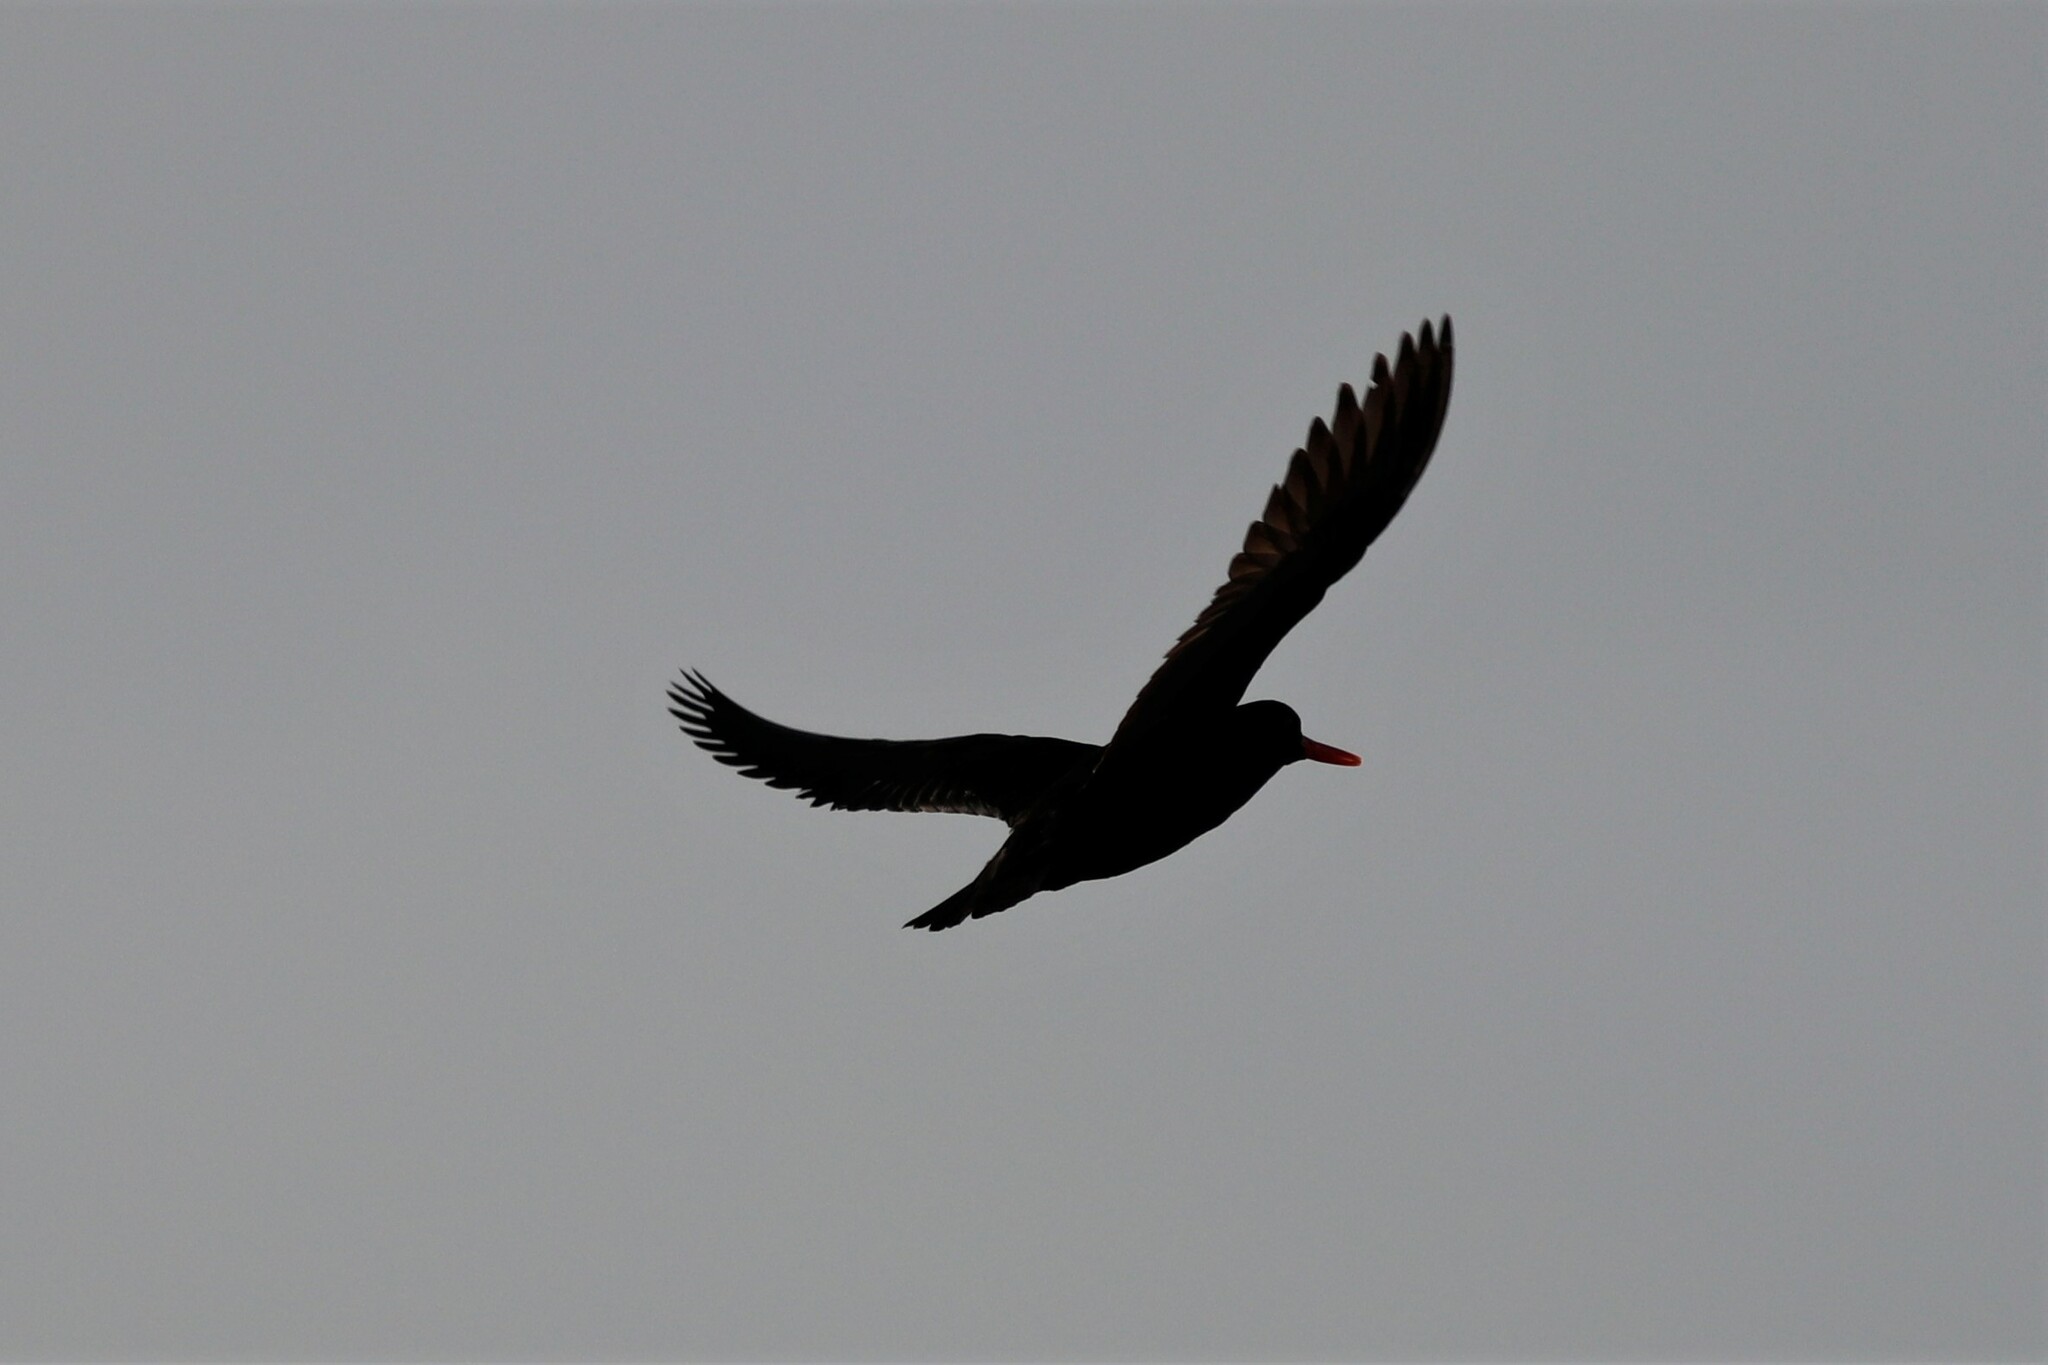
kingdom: Animalia
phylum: Chordata
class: Aves
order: Charadriiformes
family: Haematopodidae
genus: Haematopus
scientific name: Haematopus moquini
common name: African oystercatcher
